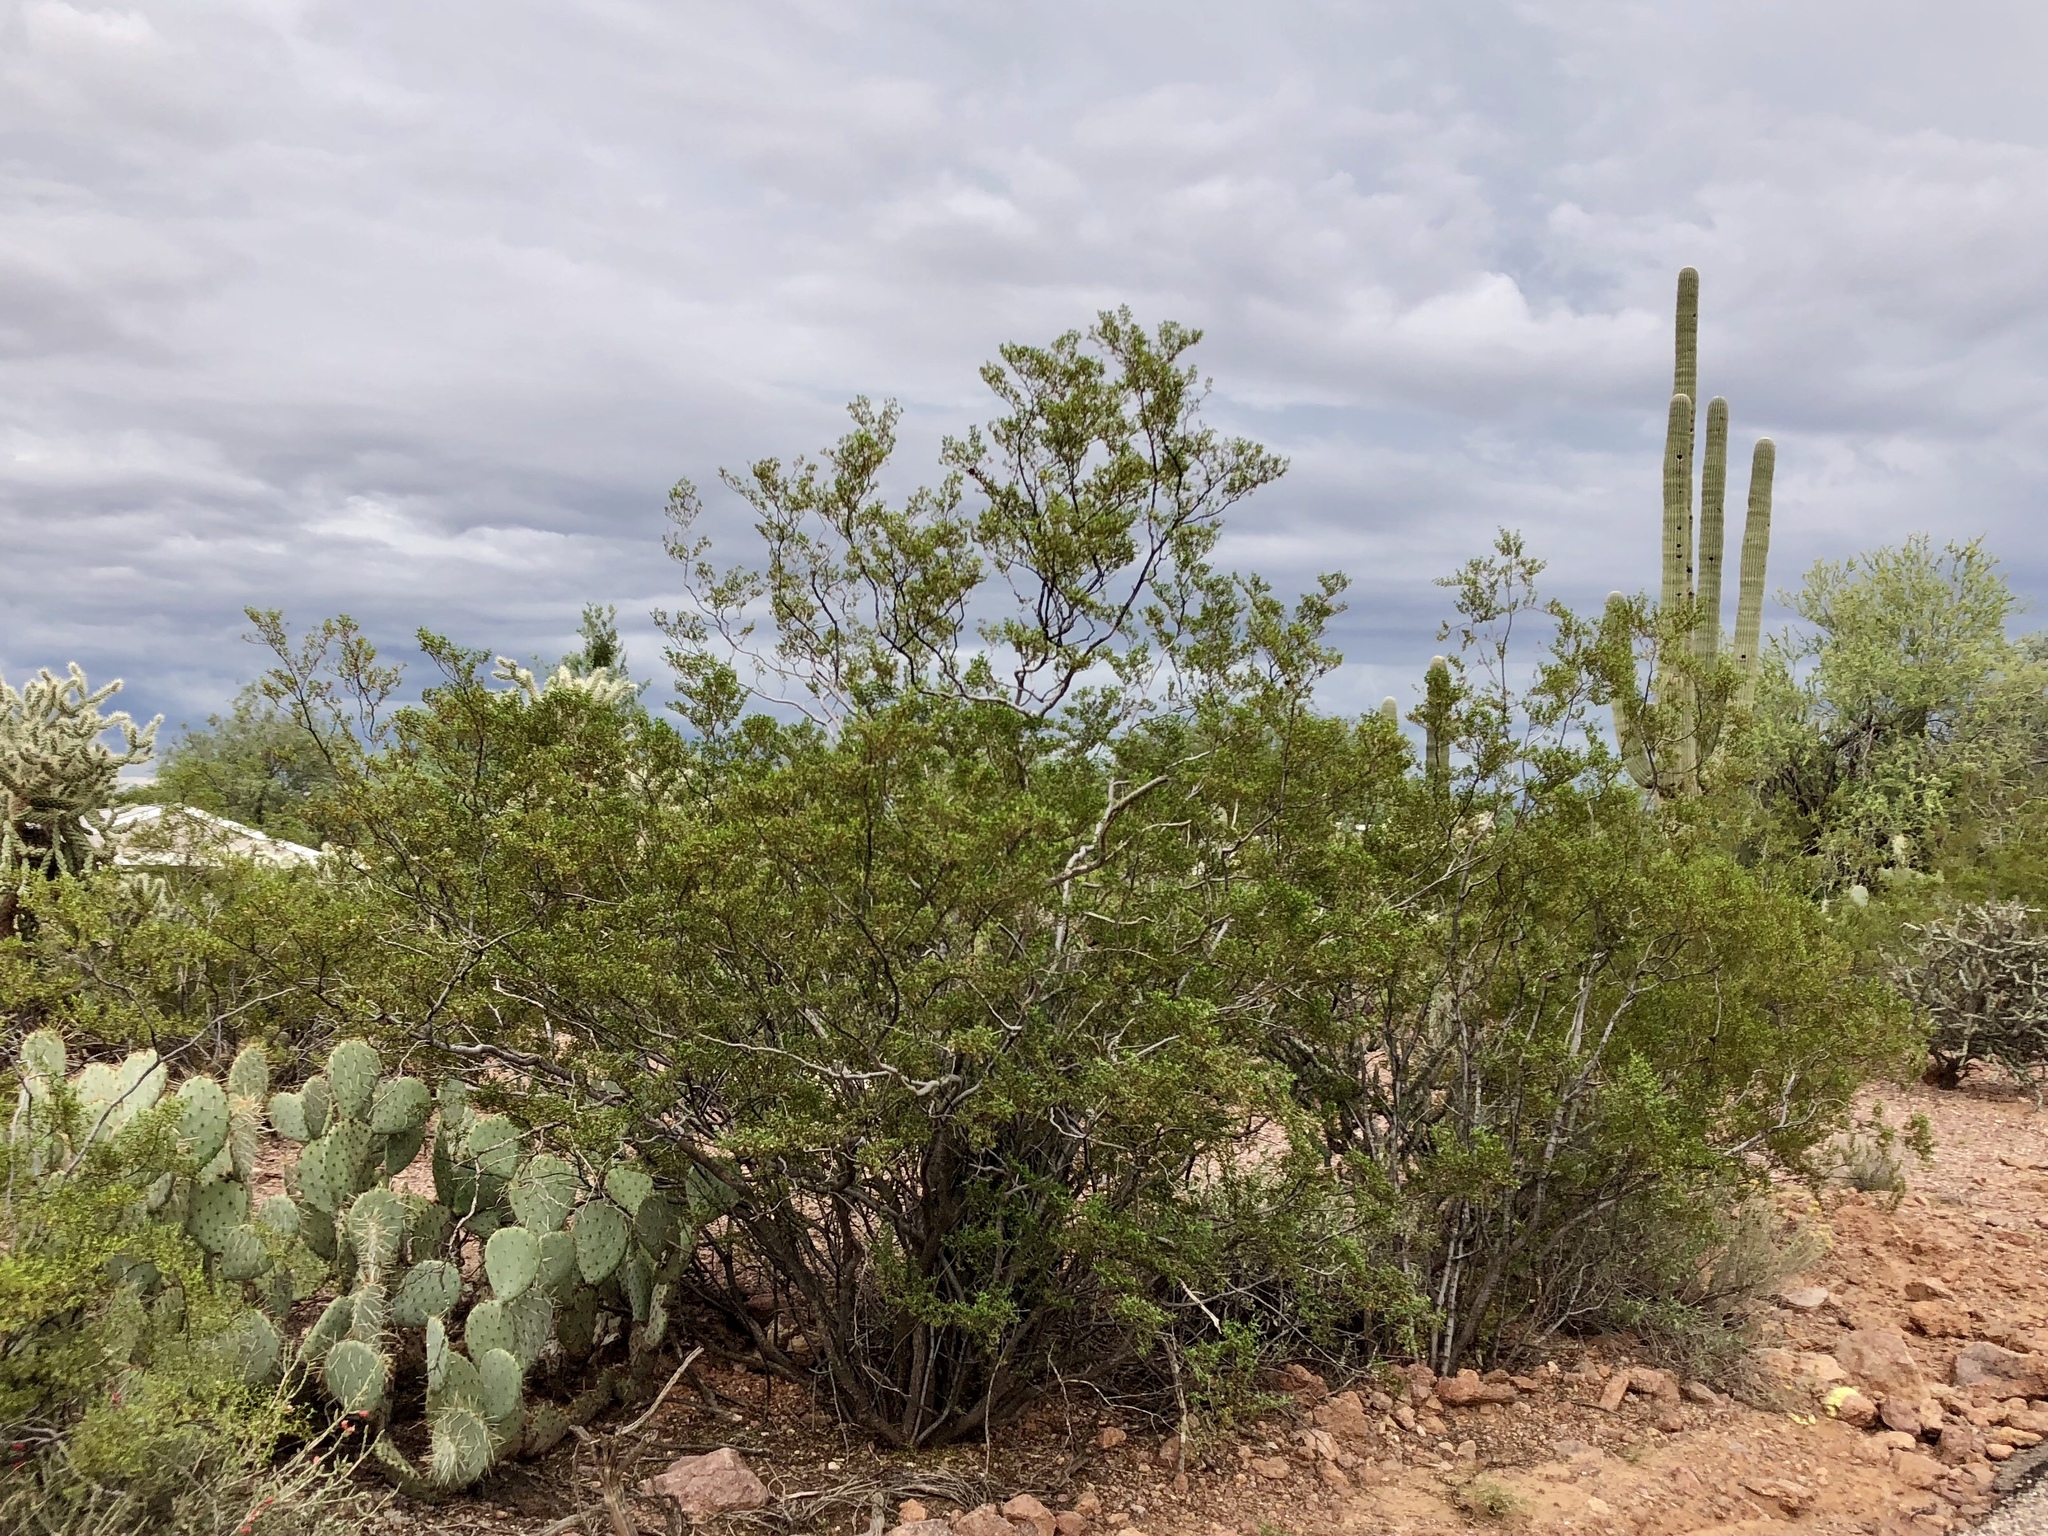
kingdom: Plantae
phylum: Tracheophyta
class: Magnoliopsida
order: Zygophyllales
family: Zygophyllaceae
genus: Larrea
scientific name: Larrea tridentata
